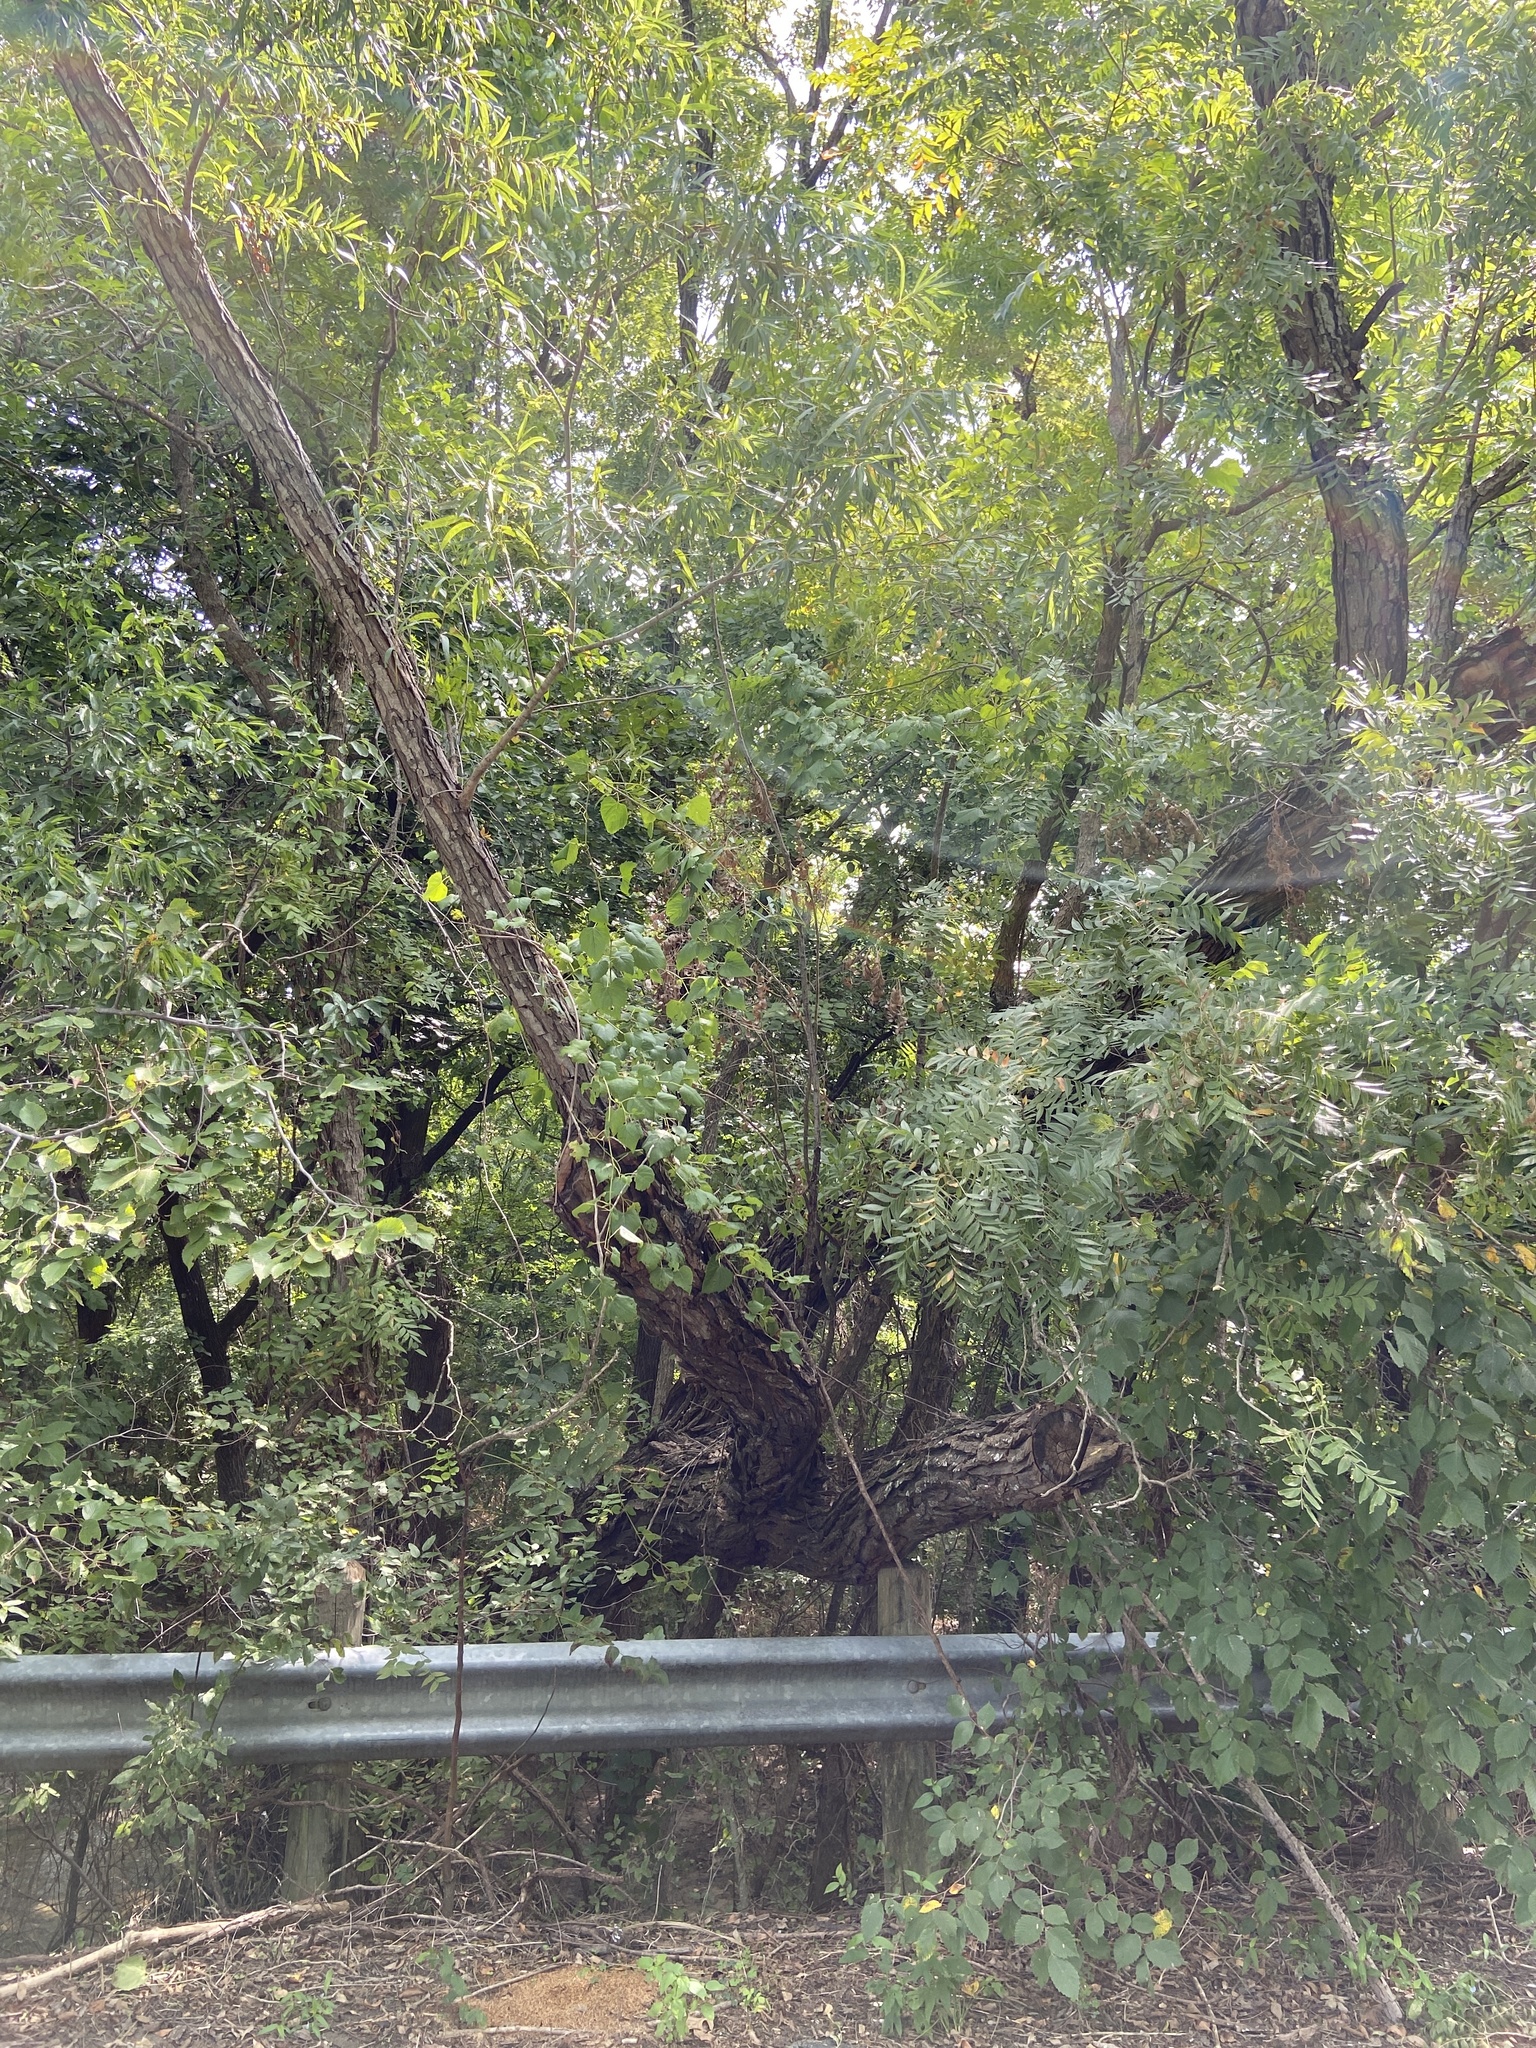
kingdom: Plantae
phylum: Tracheophyta
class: Magnoliopsida
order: Malpighiales
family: Salicaceae
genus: Salix
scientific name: Salix nigra
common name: Black willow
